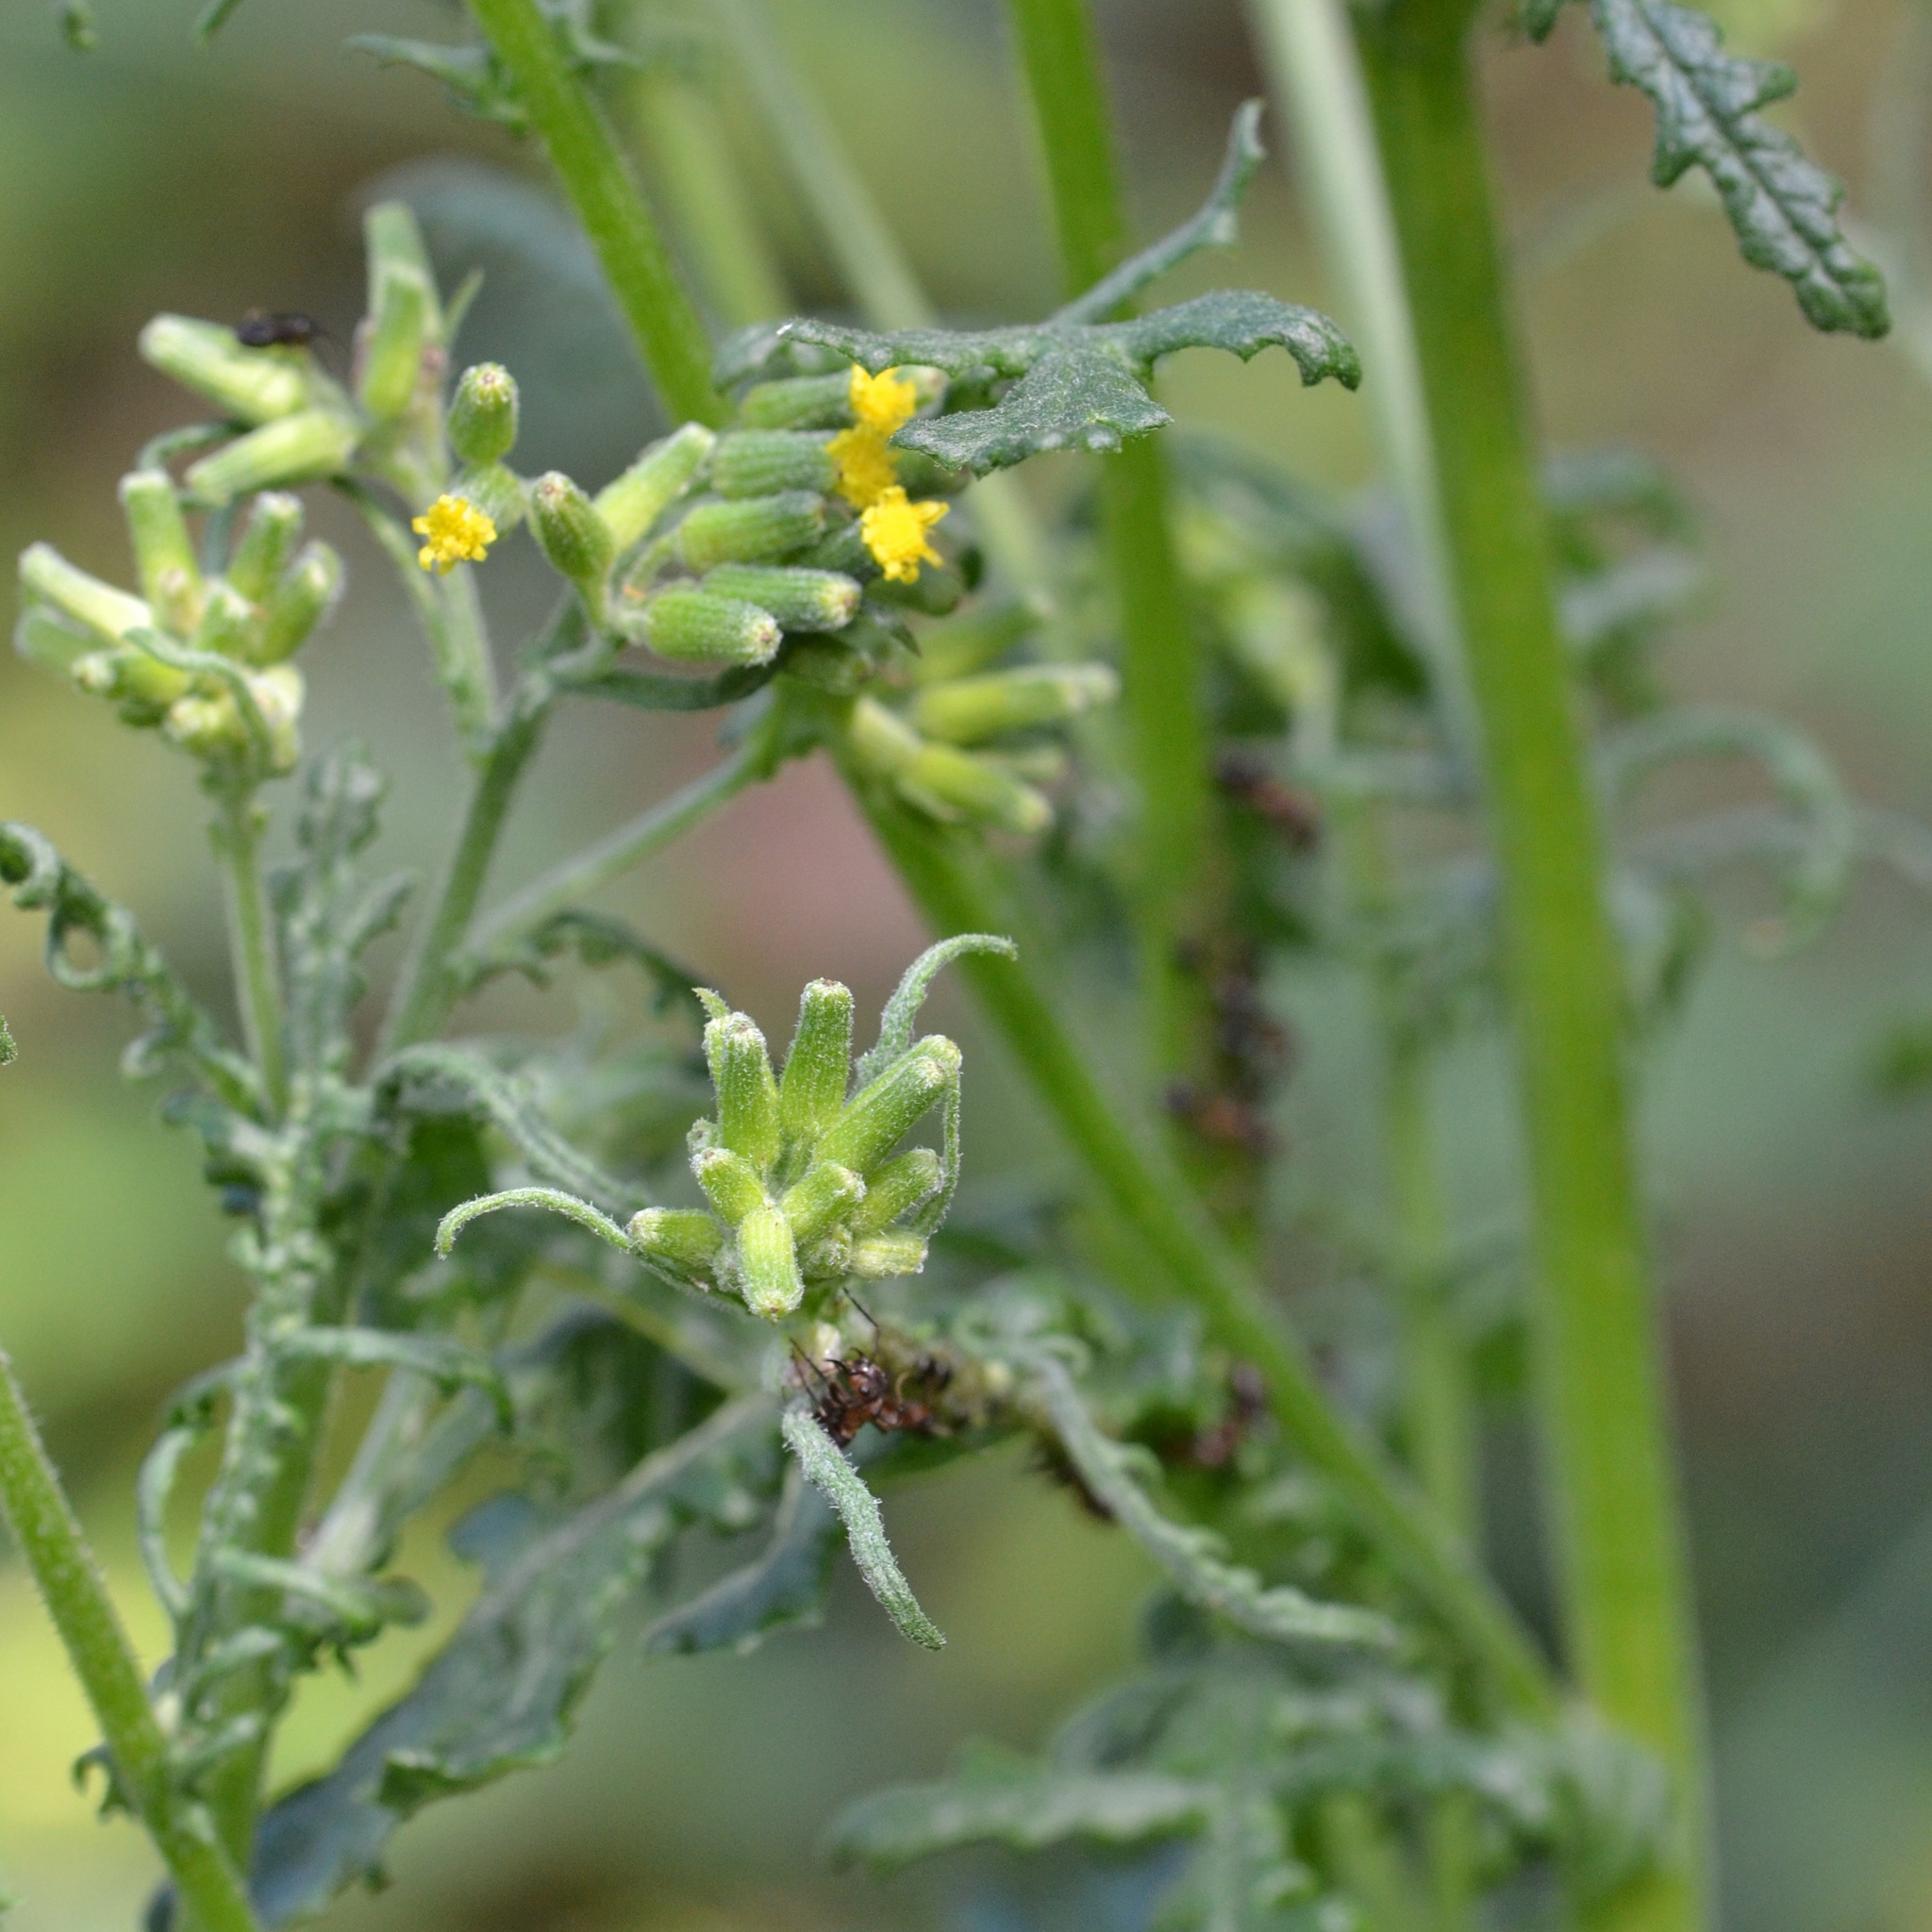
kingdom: Plantae
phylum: Tracheophyta
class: Magnoliopsida
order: Asterales
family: Asteraceae
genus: Senecio
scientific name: Senecio sylvaticus
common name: Woodland ragwort
